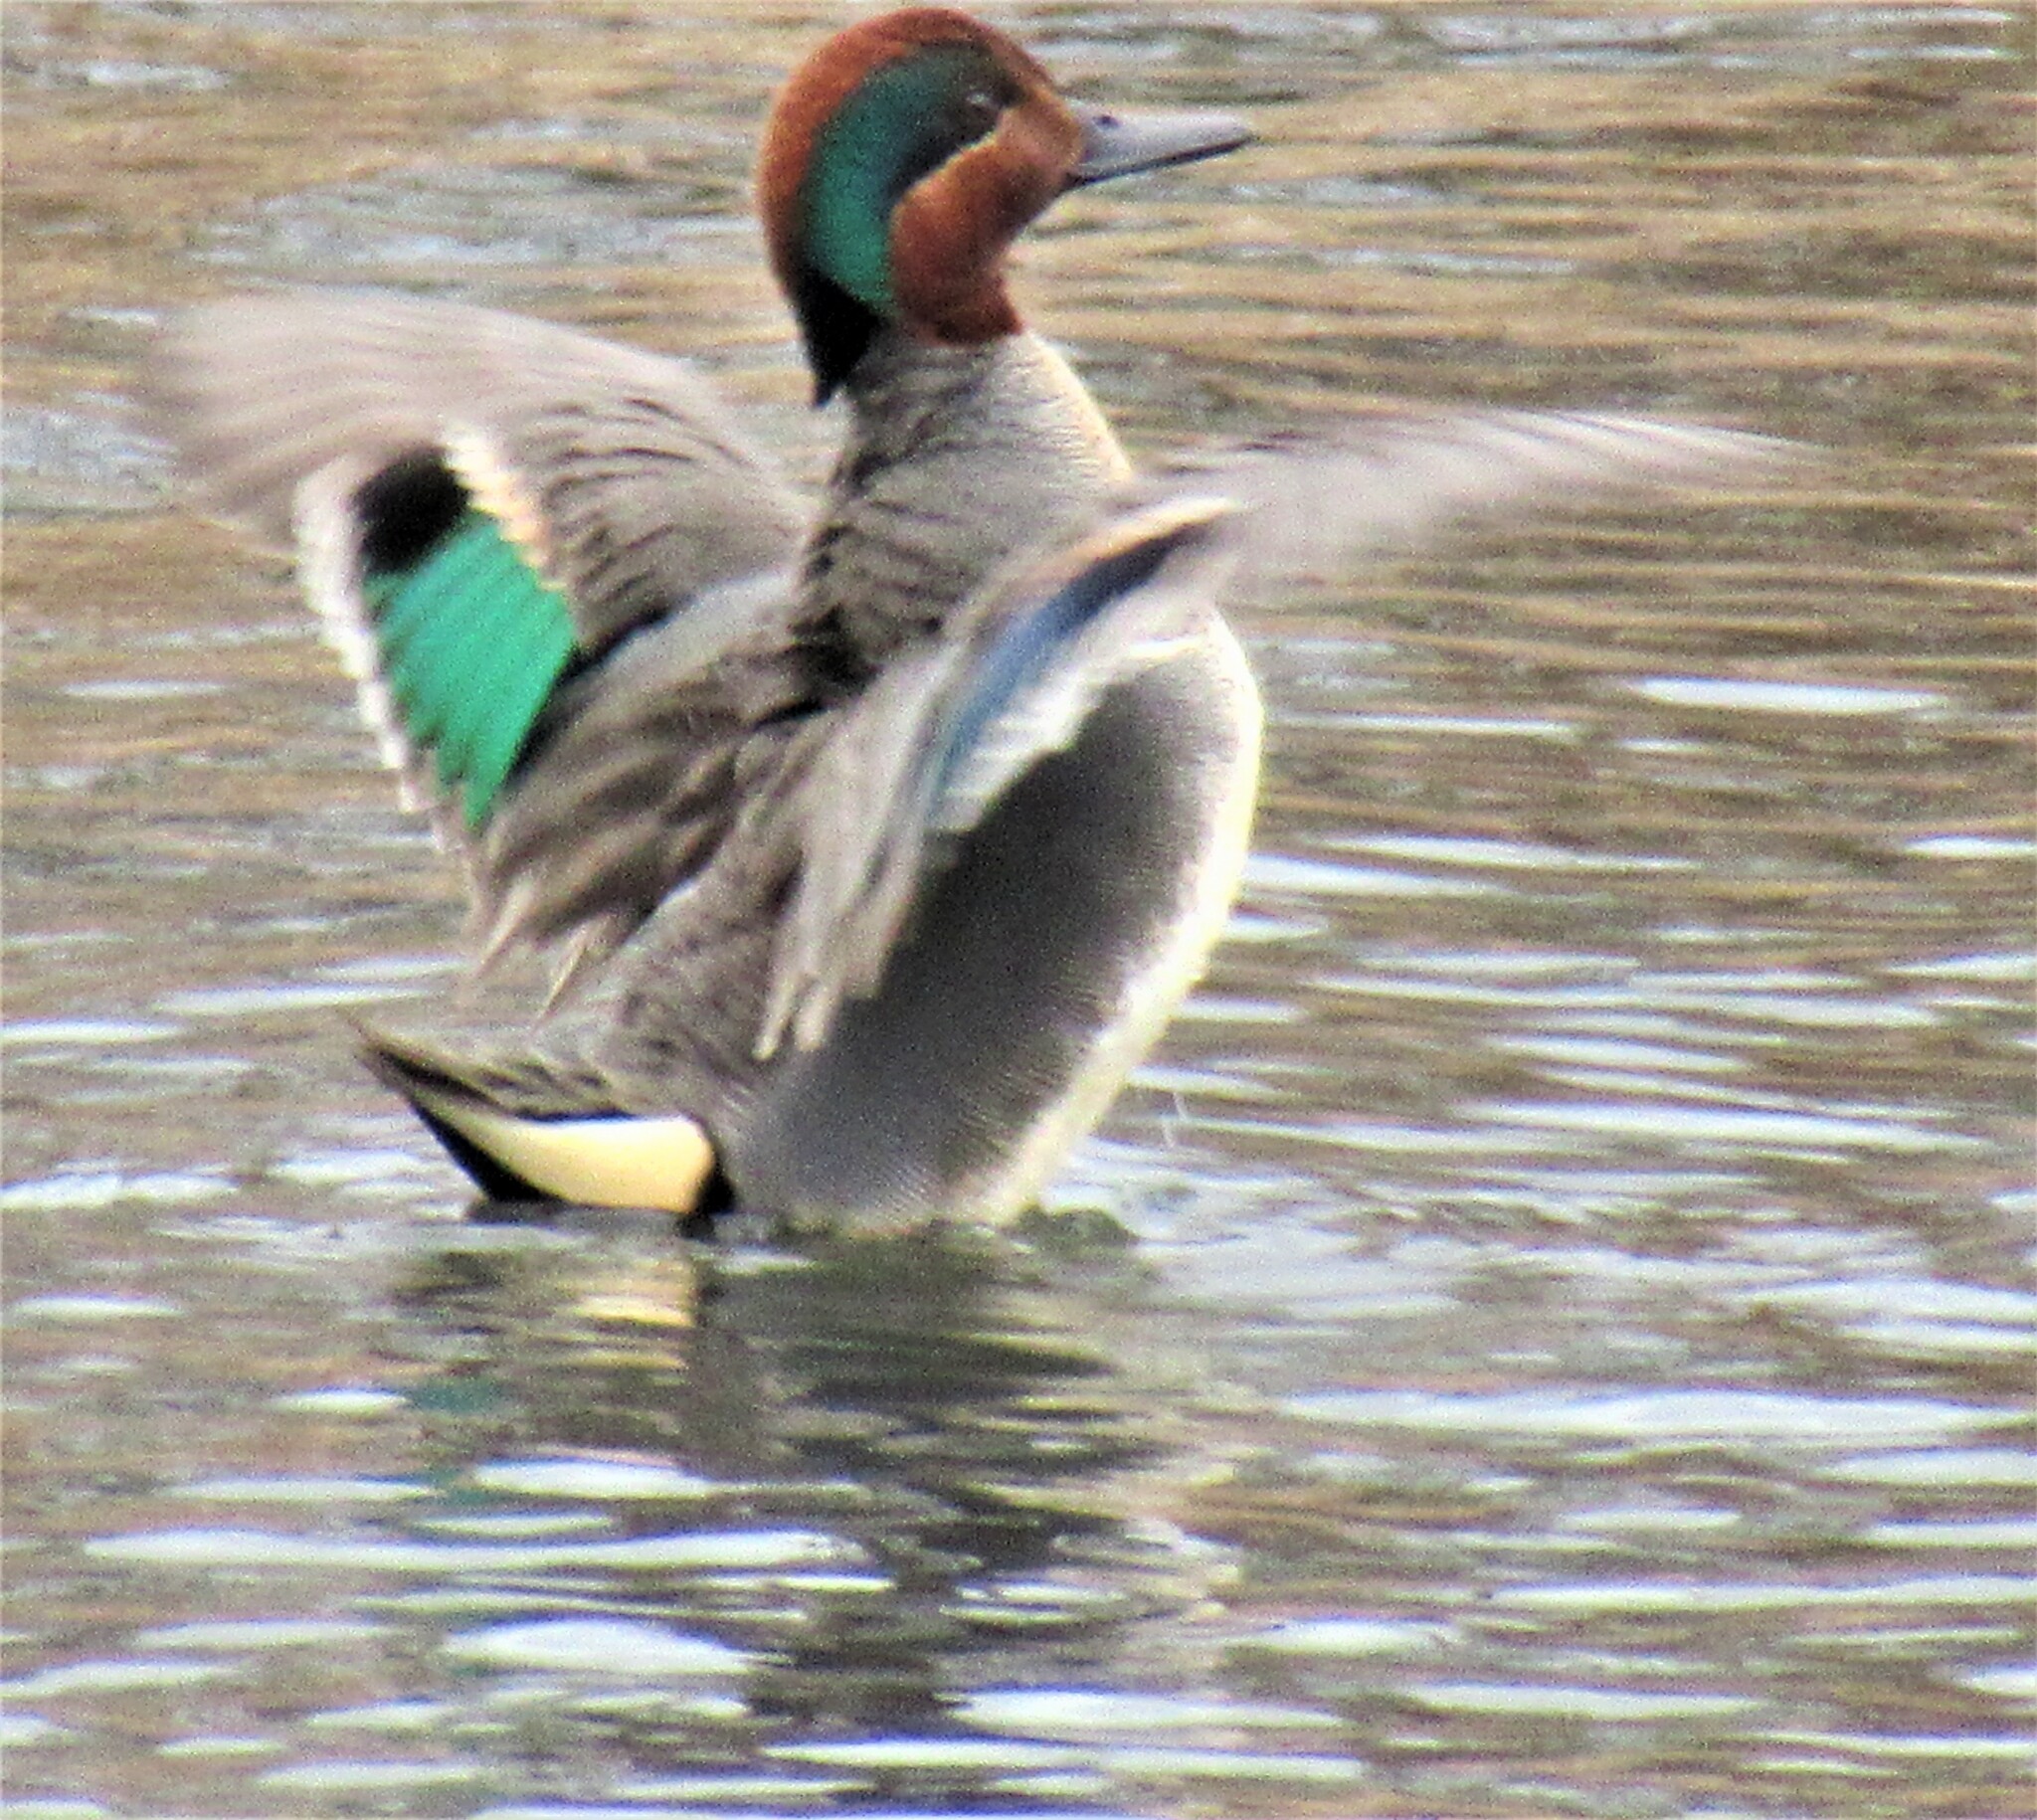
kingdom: Animalia
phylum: Chordata
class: Aves
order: Anseriformes
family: Anatidae
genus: Anas
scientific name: Anas crecca
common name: Eurasian teal
